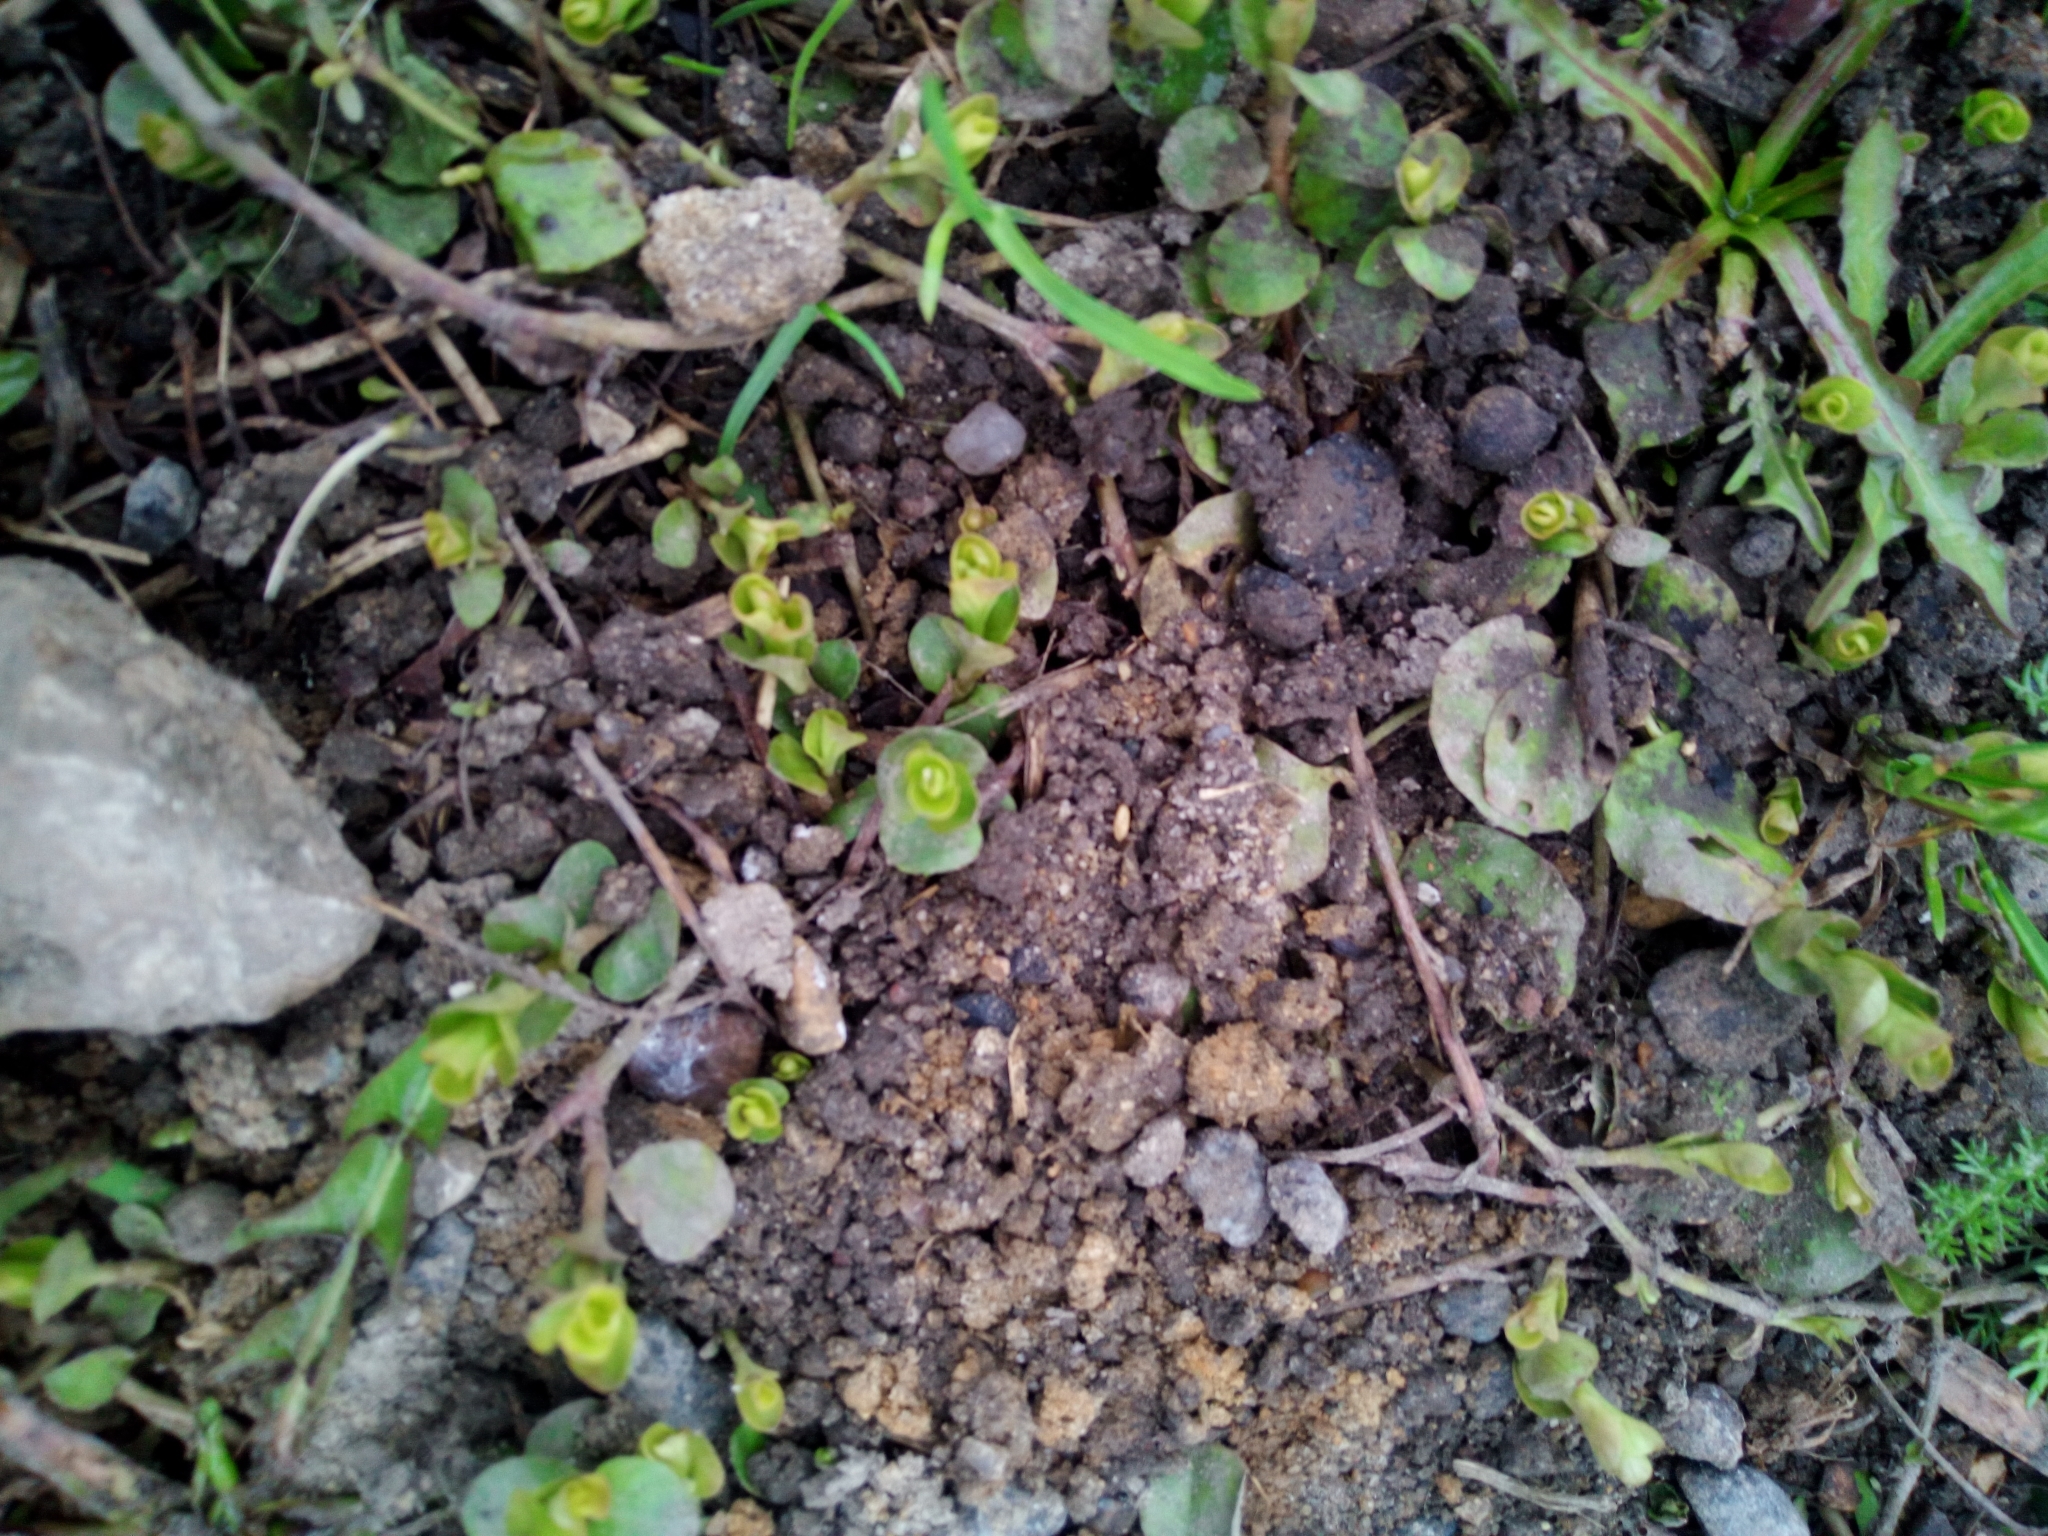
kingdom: Plantae
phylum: Tracheophyta
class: Magnoliopsida
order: Ericales
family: Primulaceae
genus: Lysimachia
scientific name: Lysimachia nummularia
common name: Moneywort
